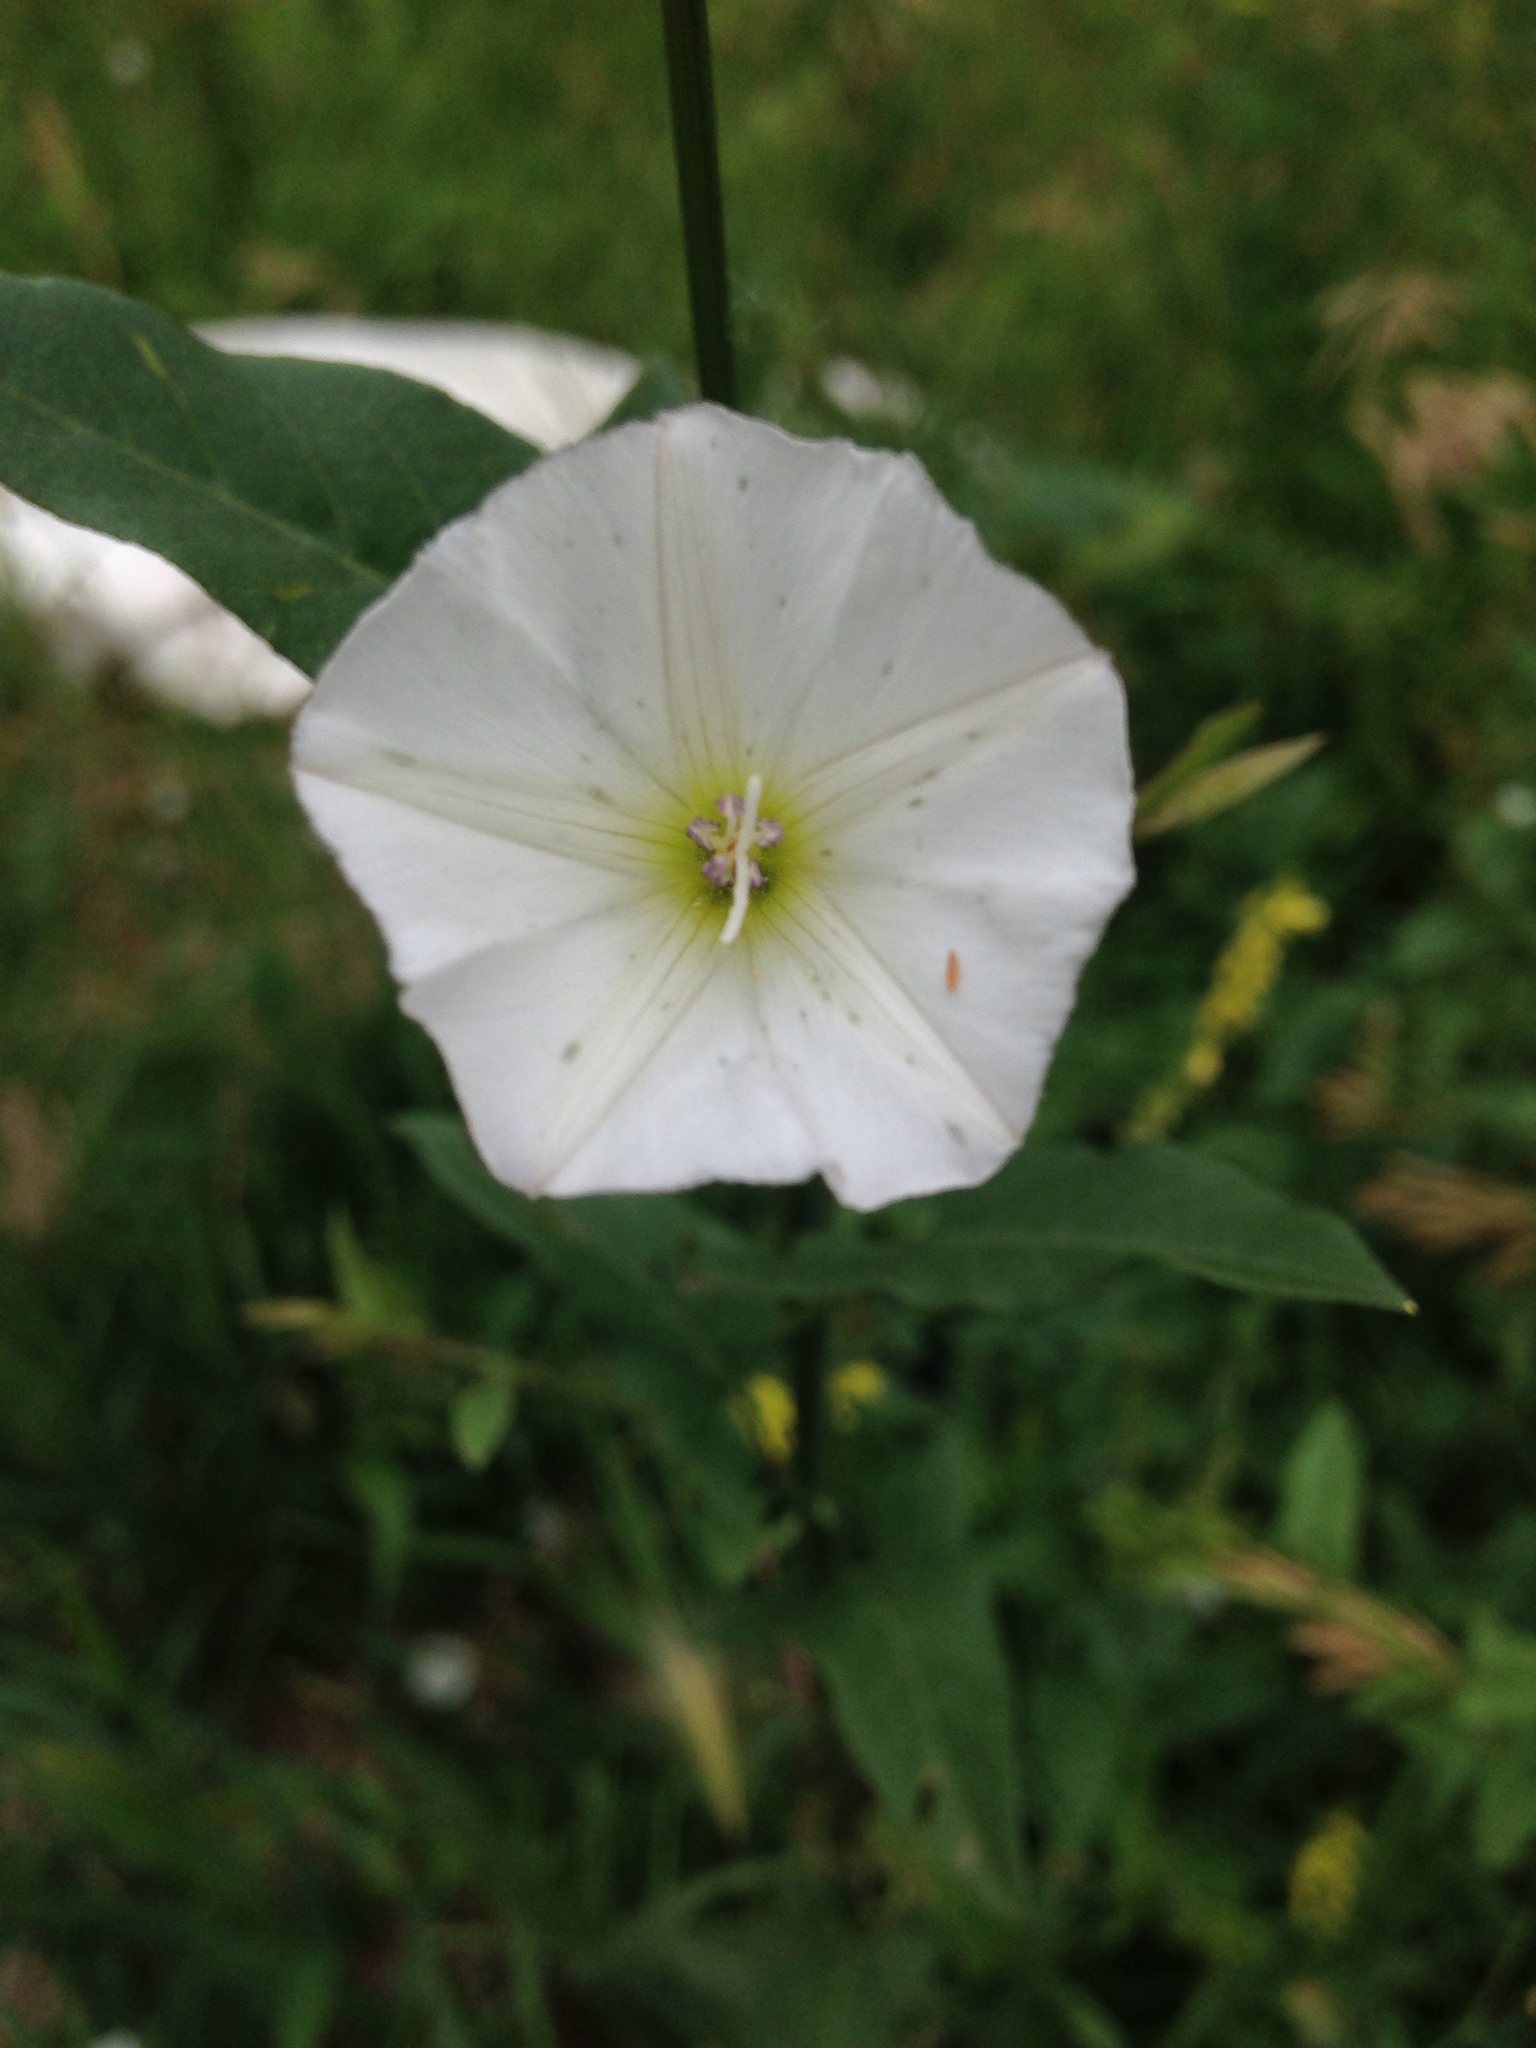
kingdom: Plantae
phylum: Tracheophyta
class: Magnoliopsida
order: Solanales
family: Convolvulaceae
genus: Convolvulus
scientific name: Convolvulus arvensis
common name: Field bindweed
